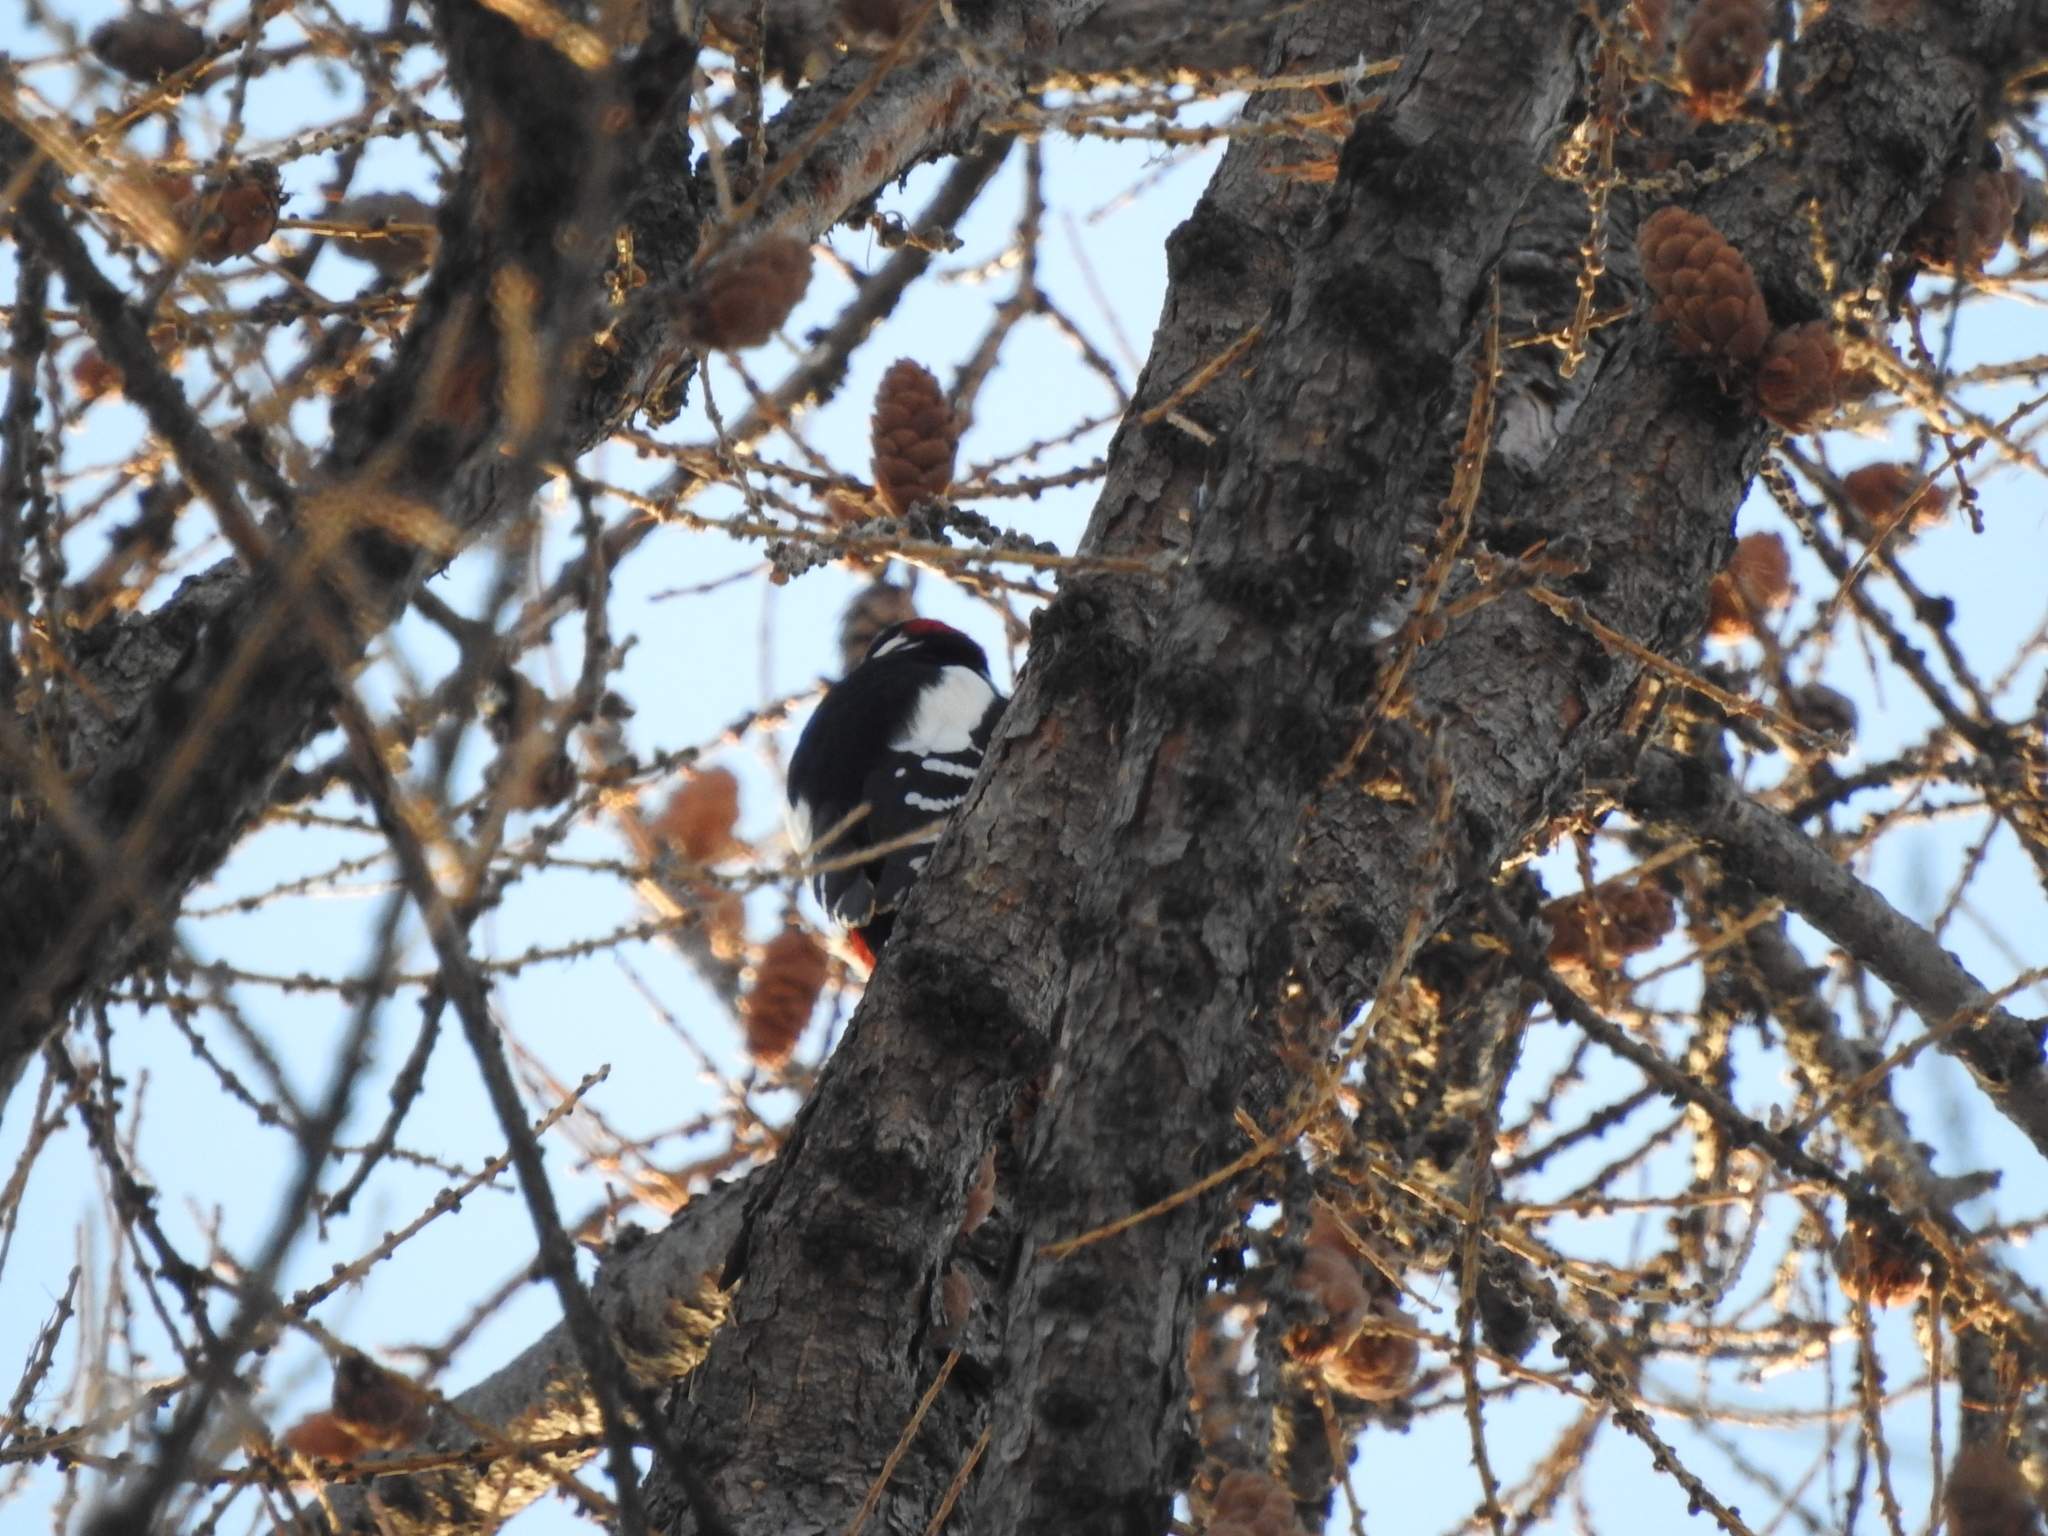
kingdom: Animalia
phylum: Chordata
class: Aves
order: Piciformes
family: Picidae
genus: Dendrocopos
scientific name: Dendrocopos major
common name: Great spotted woodpecker
